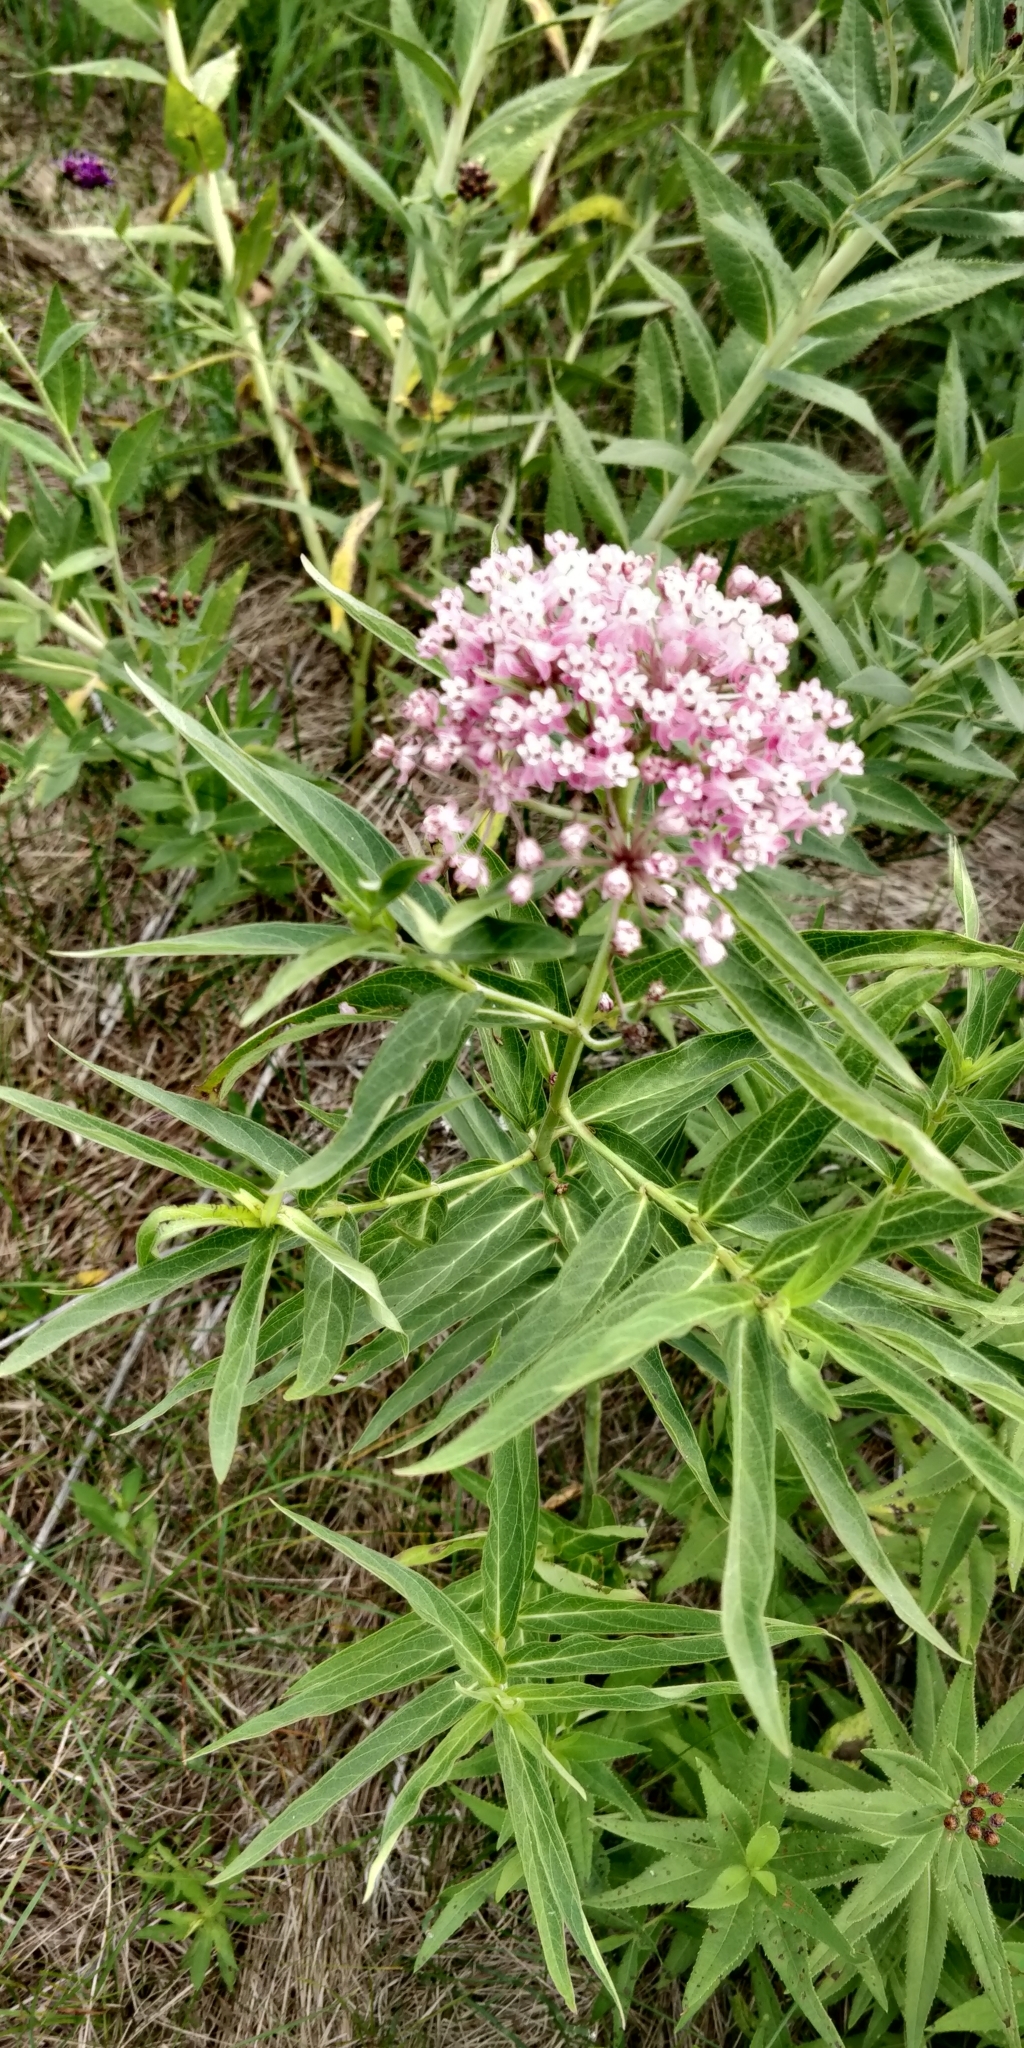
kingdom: Plantae
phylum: Tracheophyta
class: Magnoliopsida
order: Gentianales
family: Apocynaceae
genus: Asclepias
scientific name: Asclepias incarnata
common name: Swamp milkweed
